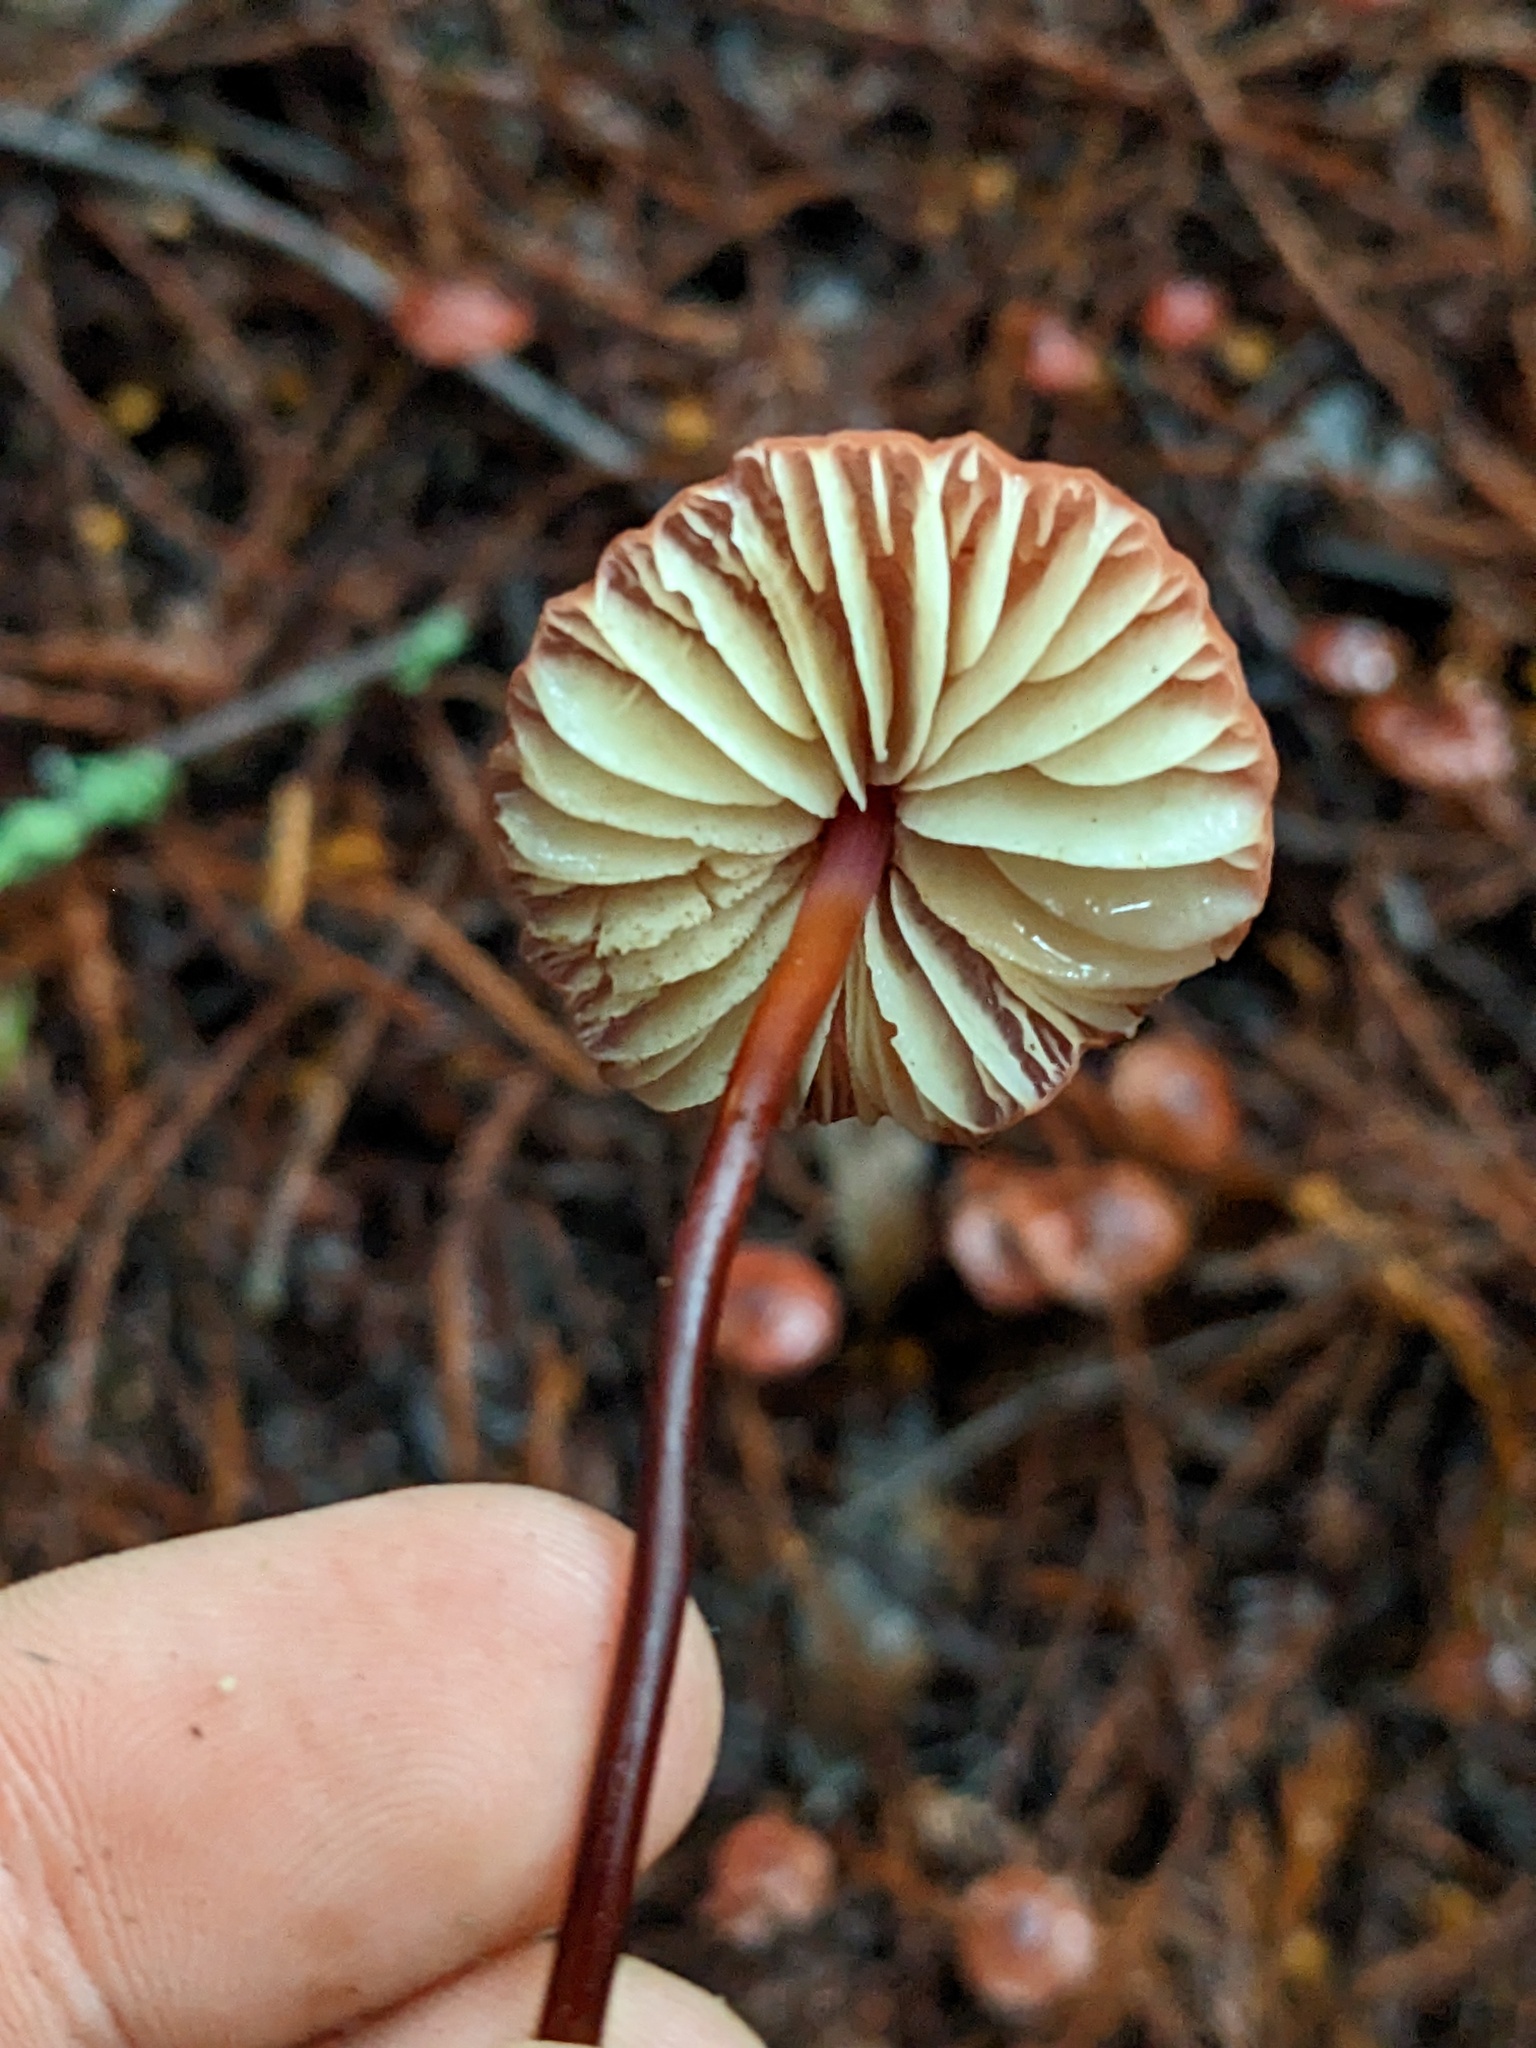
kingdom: Fungi
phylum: Basidiomycota
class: Agaricomycetes
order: Agaricales
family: Marasmiaceae
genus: Marasmius
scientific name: Marasmius plicatulus
